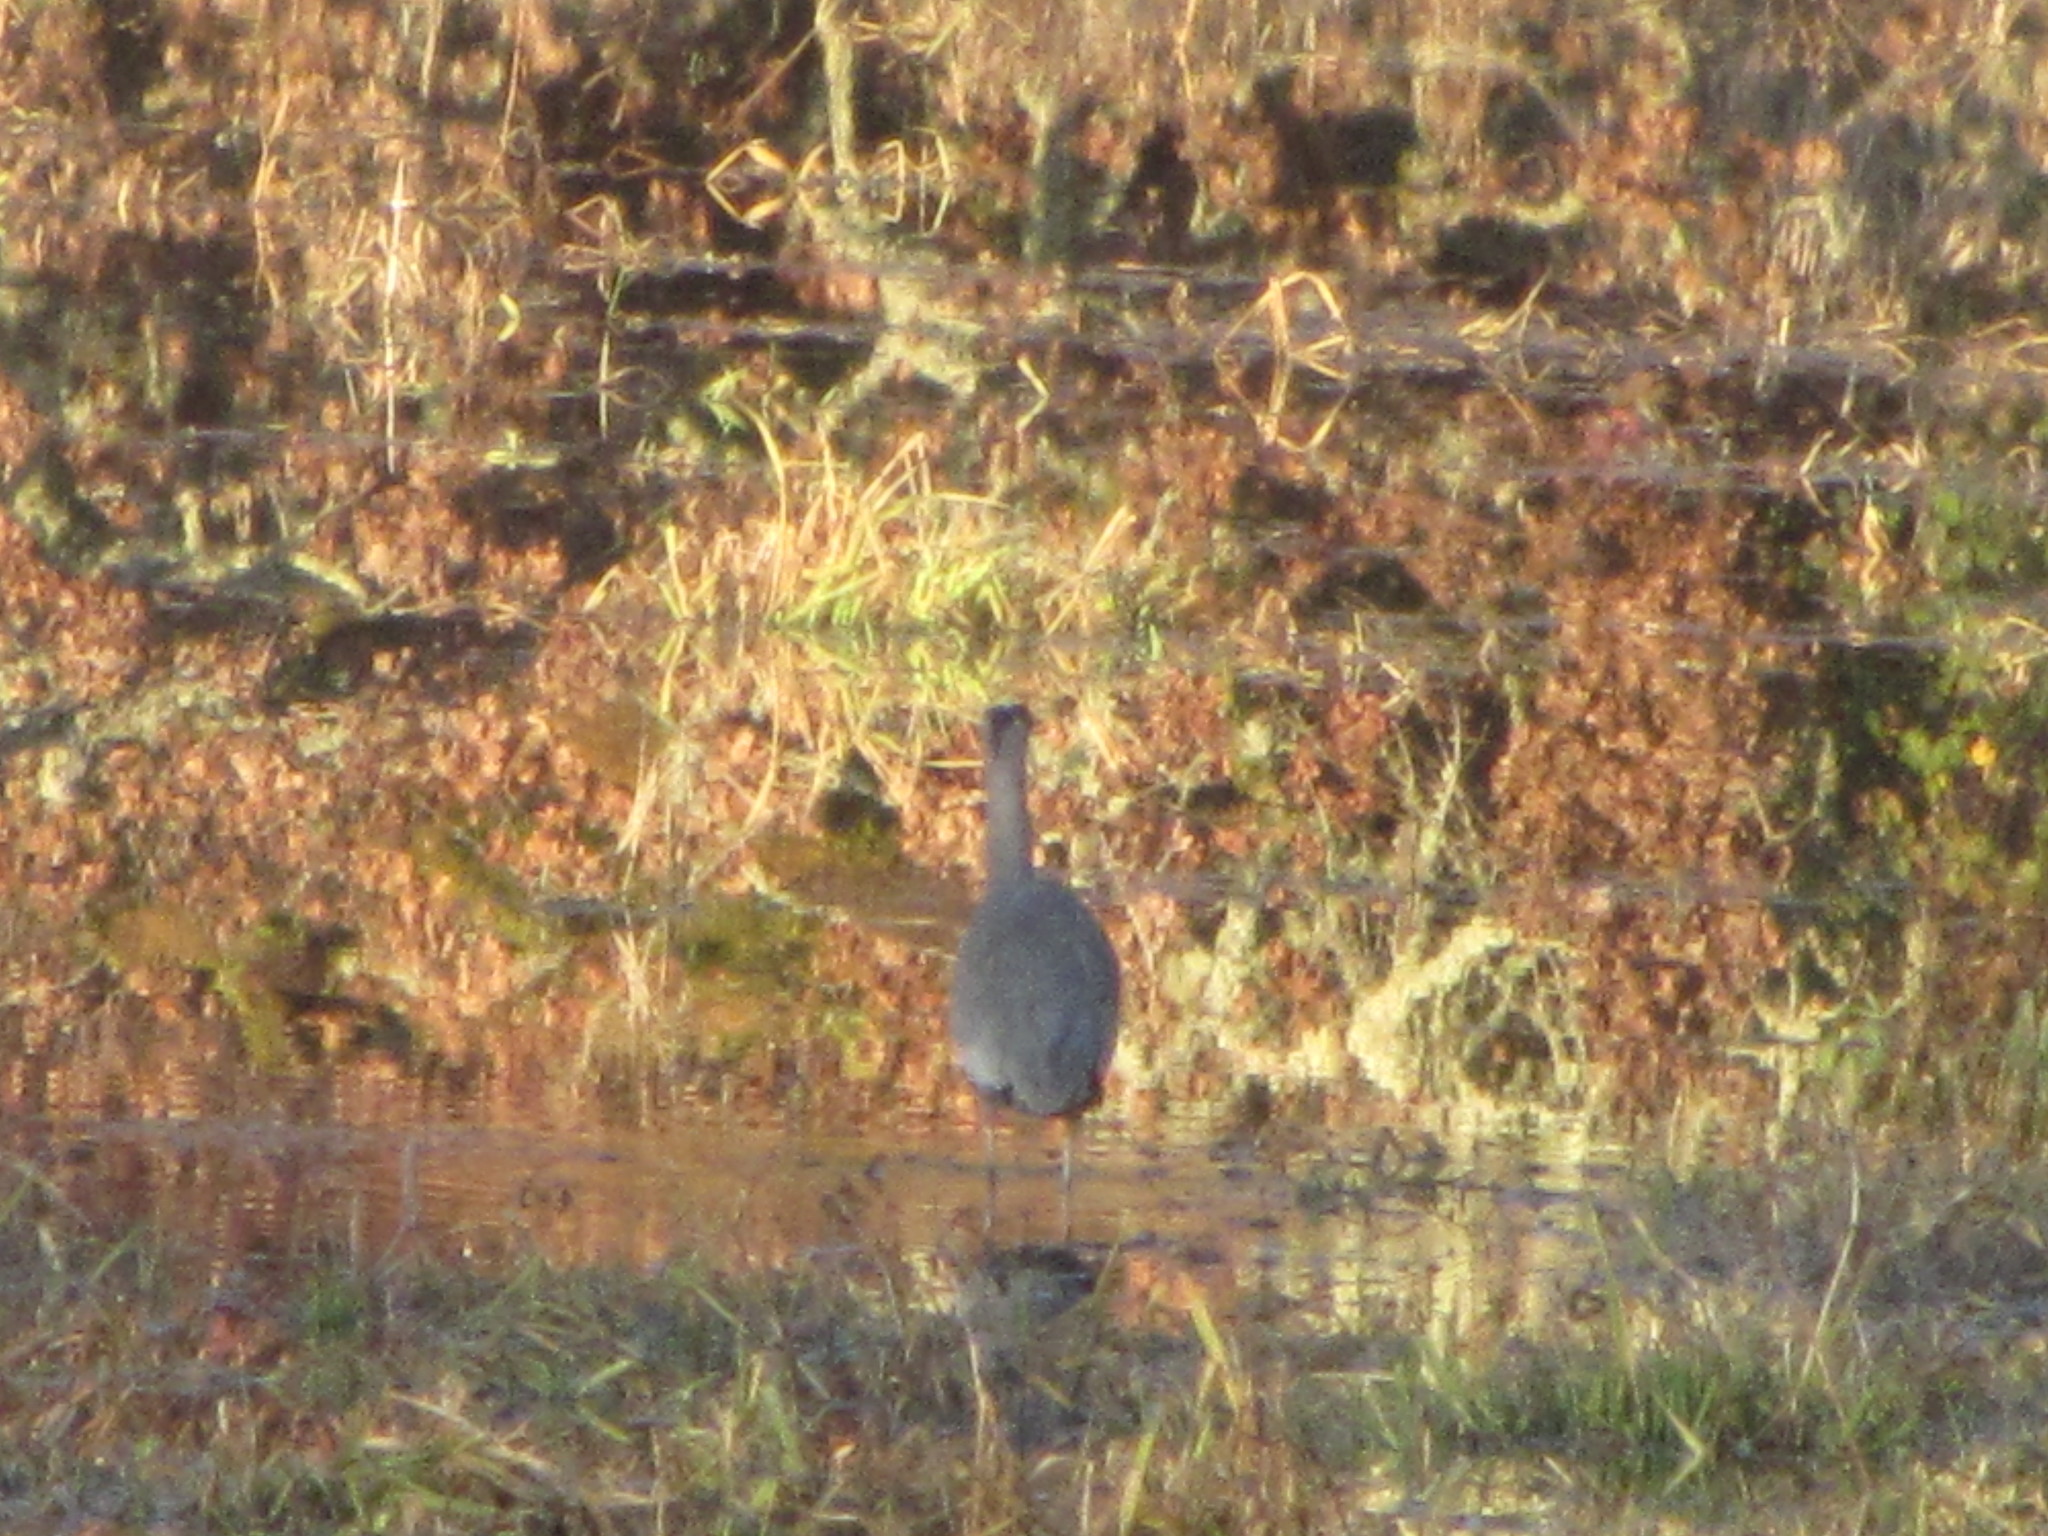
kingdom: Animalia
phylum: Chordata
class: Aves
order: Pelecaniformes
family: Ardeidae
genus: Ardea
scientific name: Ardea herodias
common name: Great blue heron
